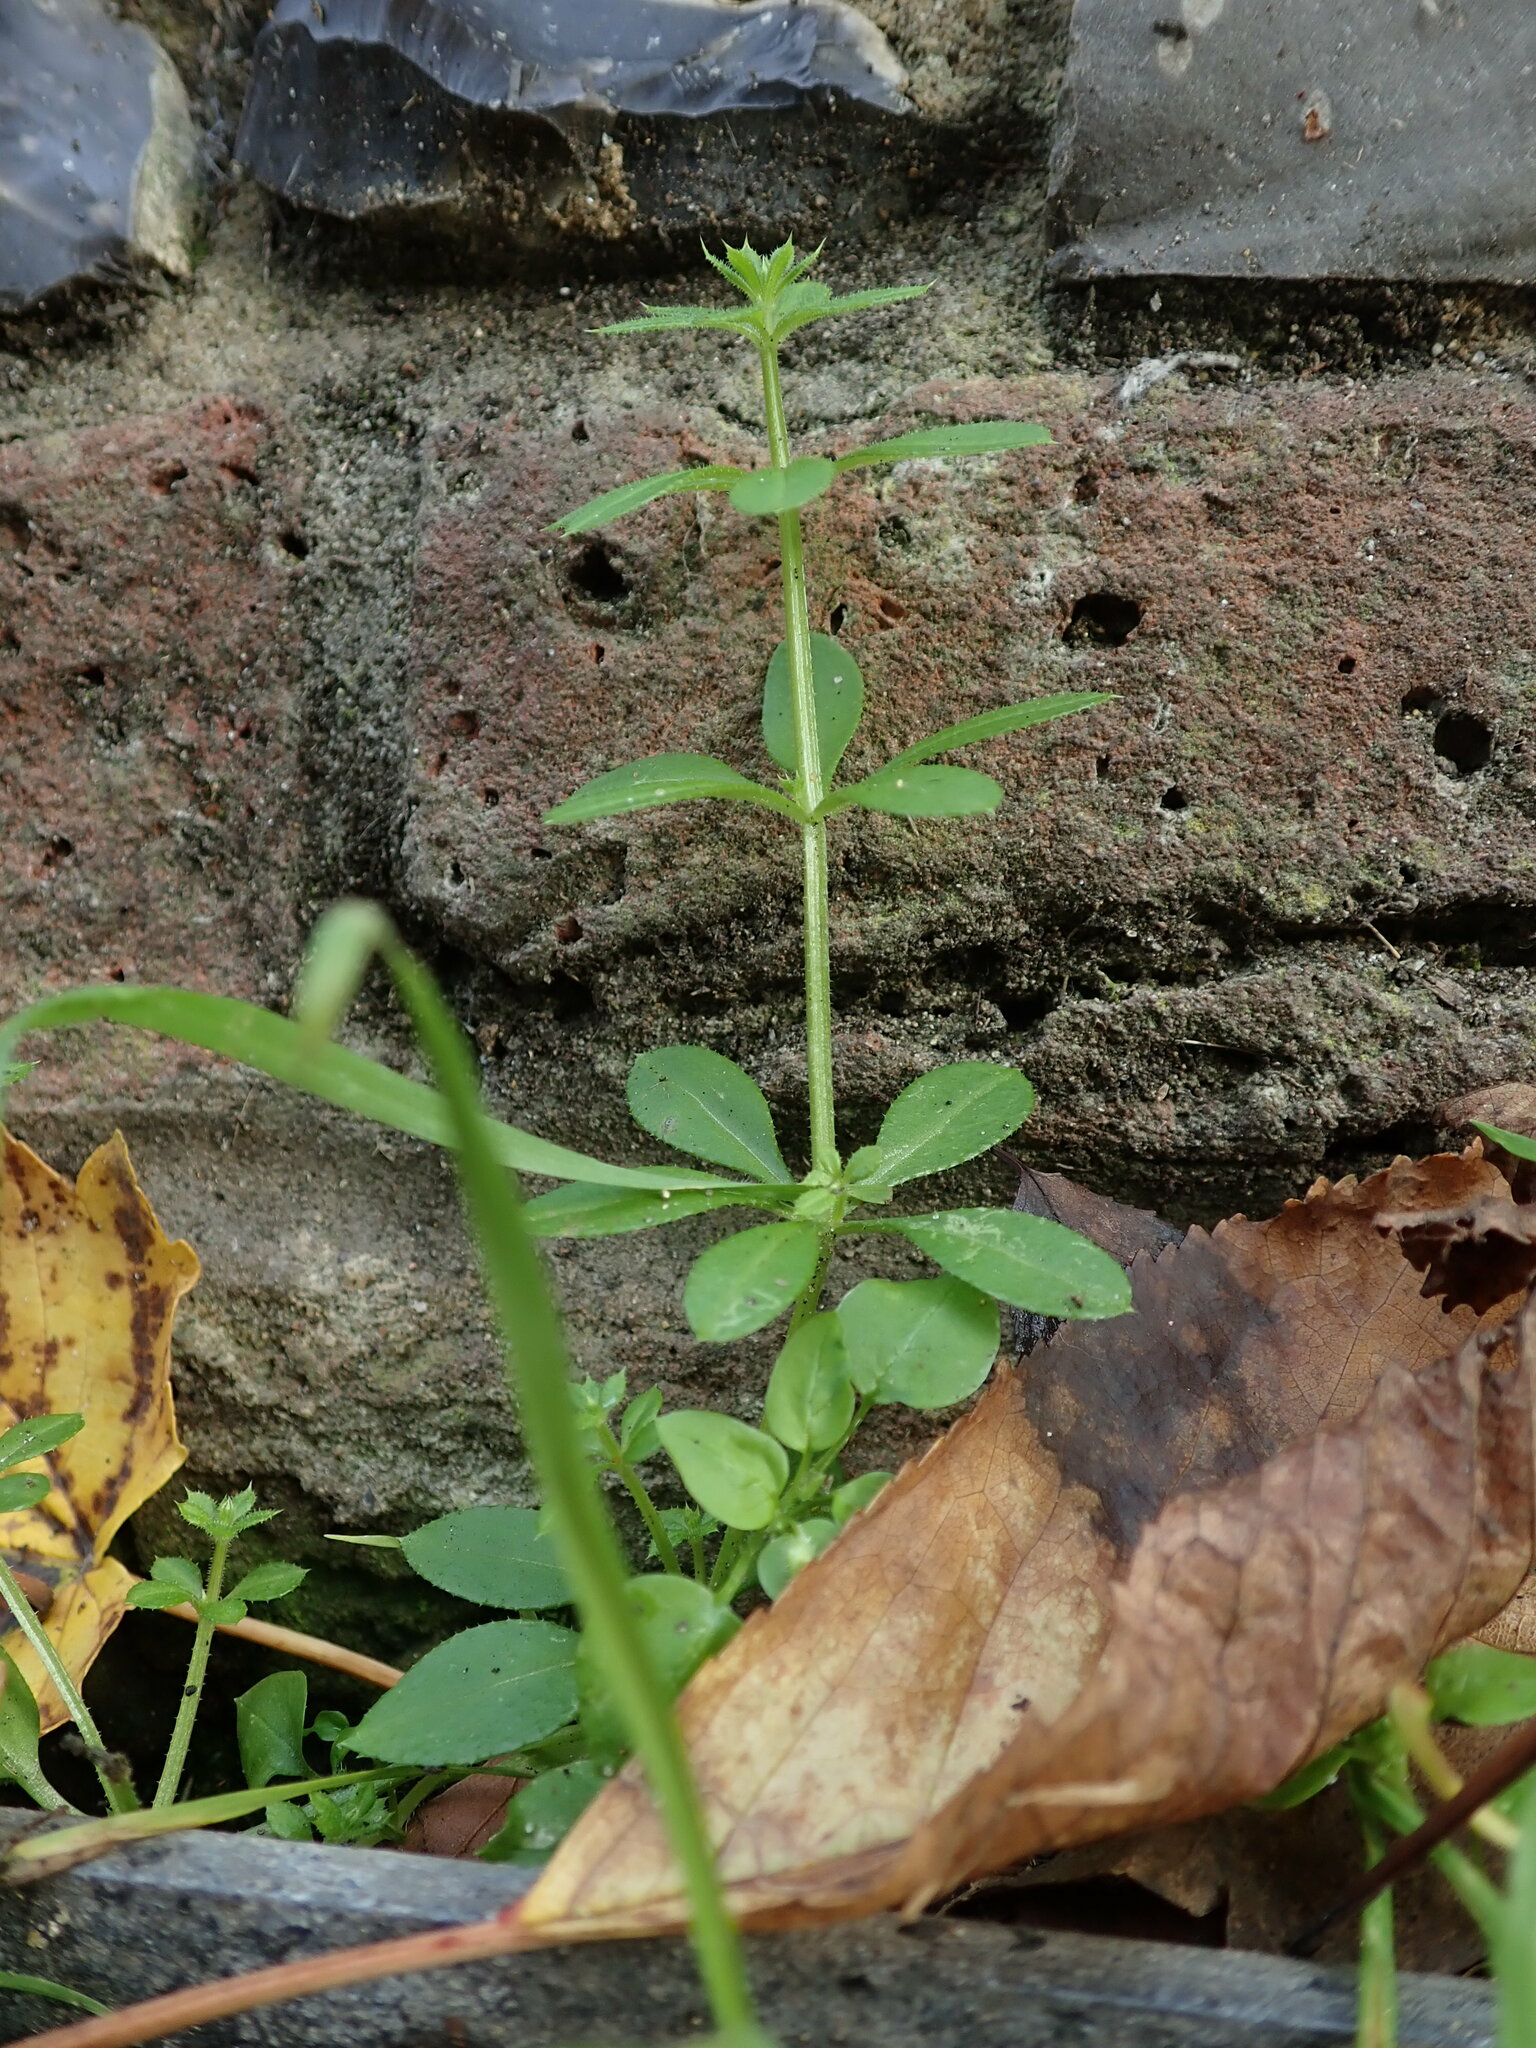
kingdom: Plantae
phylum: Tracheophyta
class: Magnoliopsida
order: Gentianales
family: Rubiaceae
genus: Galium
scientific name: Galium aparine
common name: Cleavers
